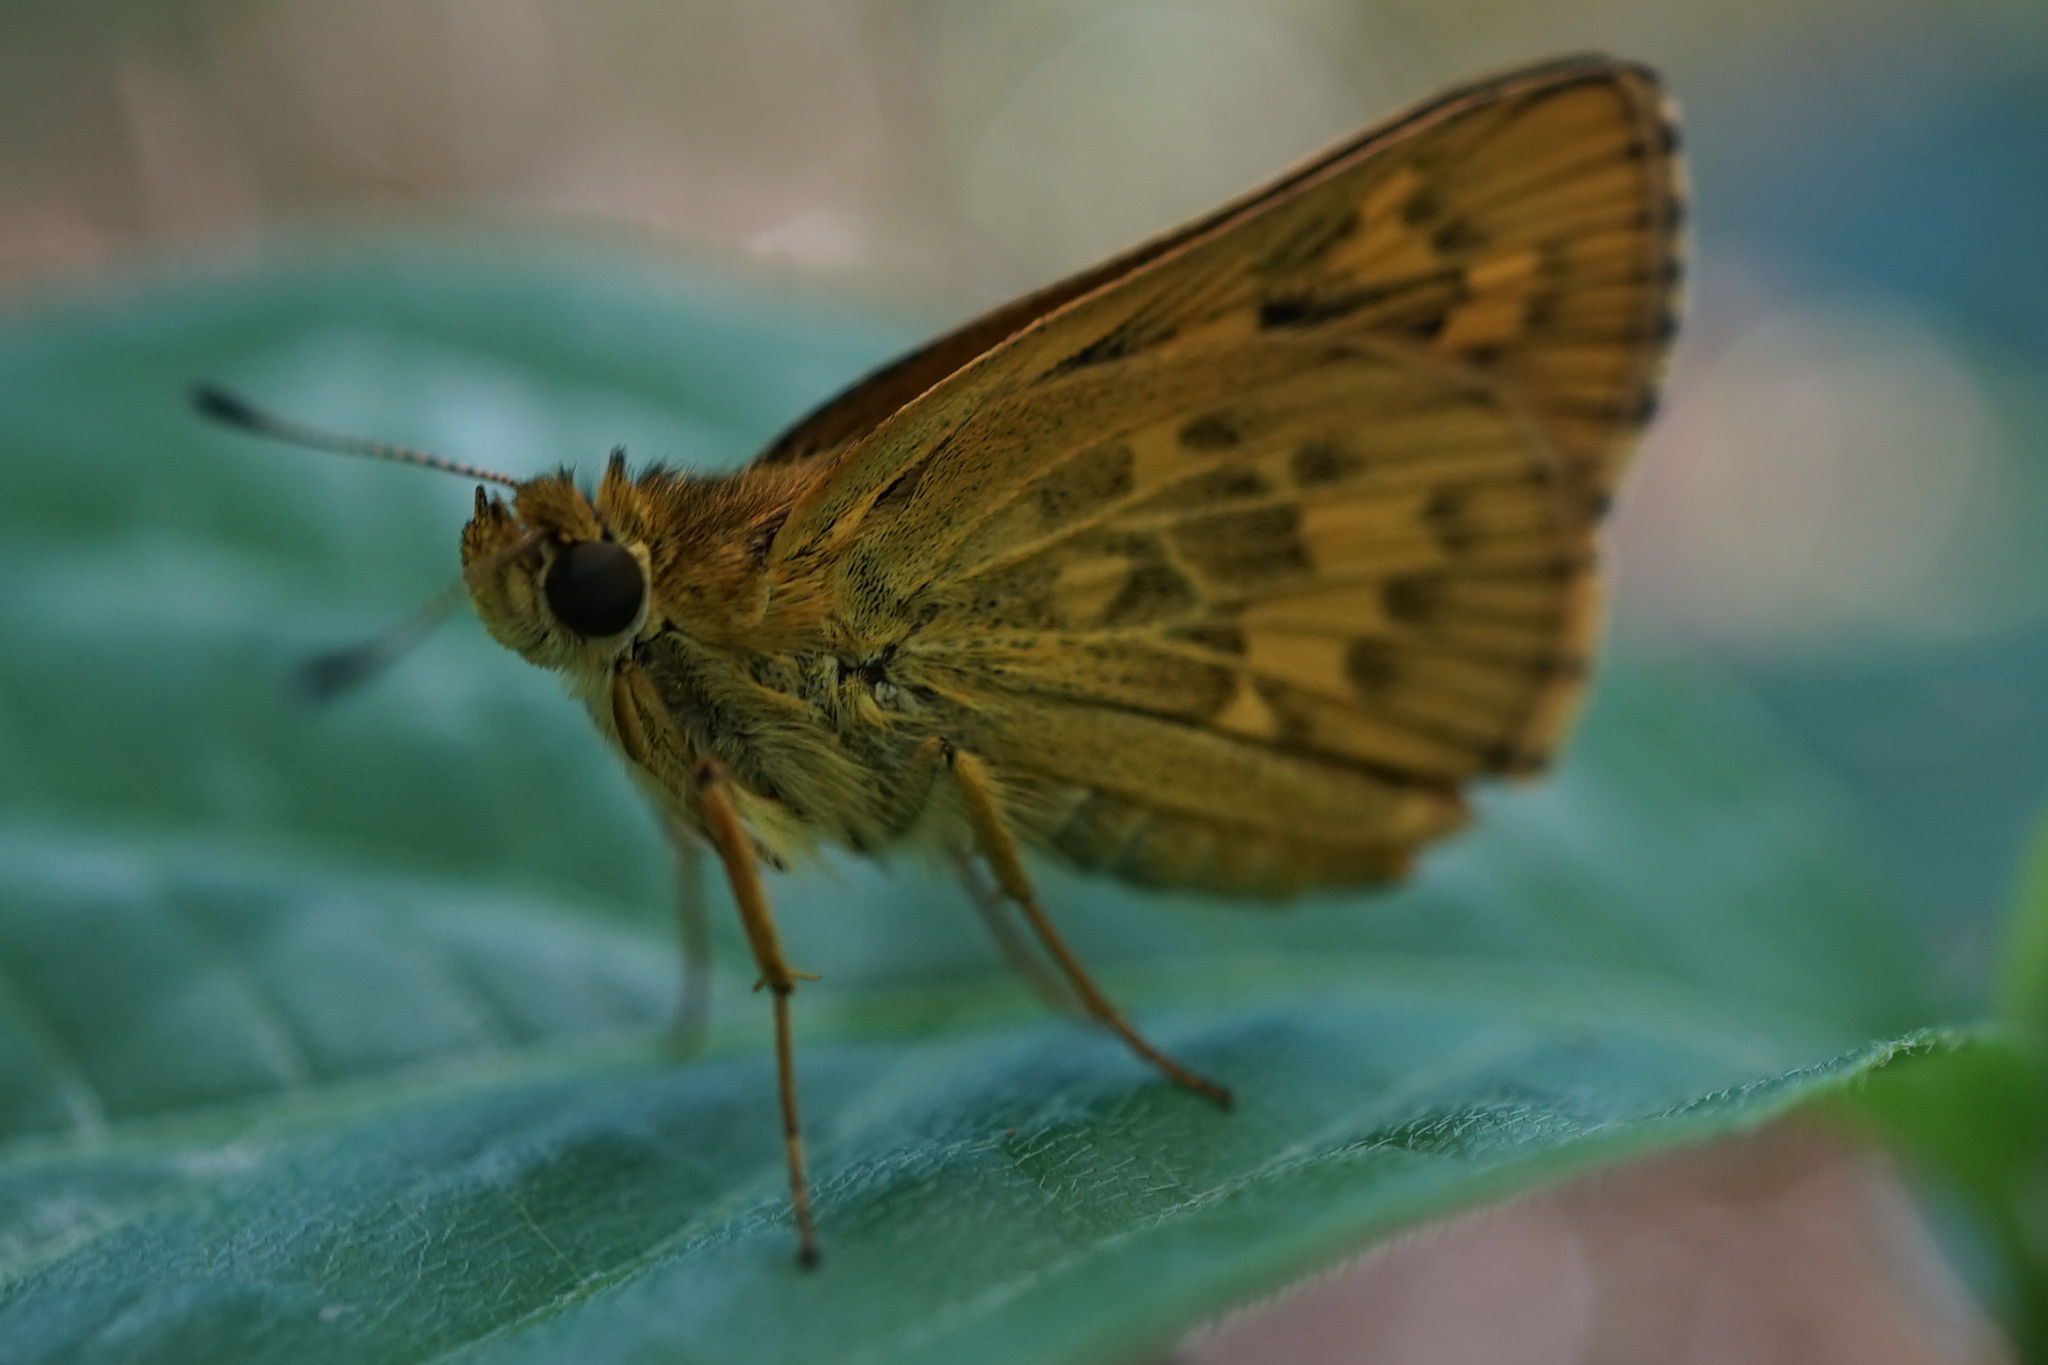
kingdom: Animalia
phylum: Arthropoda
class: Insecta
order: Lepidoptera
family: Hesperiidae
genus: Potanthus
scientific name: Potanthus flava
